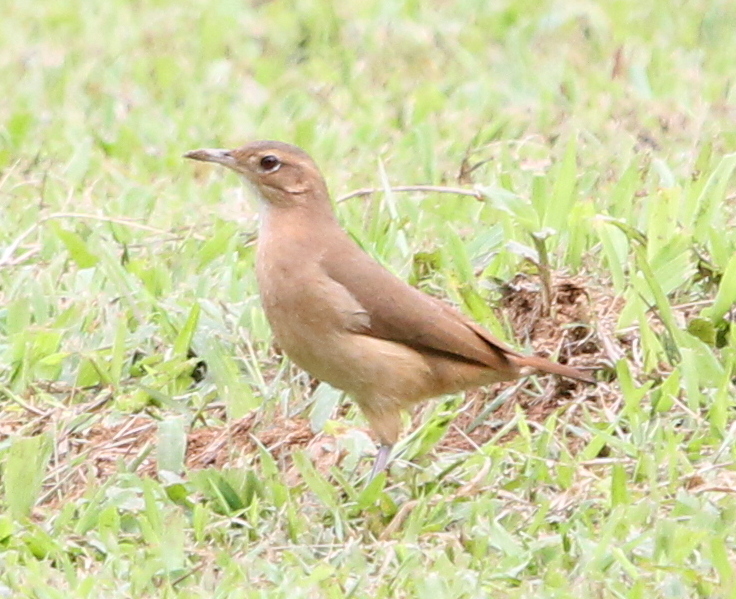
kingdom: Animalia
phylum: Chordata
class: Aves
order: Passeriformes
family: Furnariidae
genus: Furnarius
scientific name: Furnarius rufus
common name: Rufous hornero
